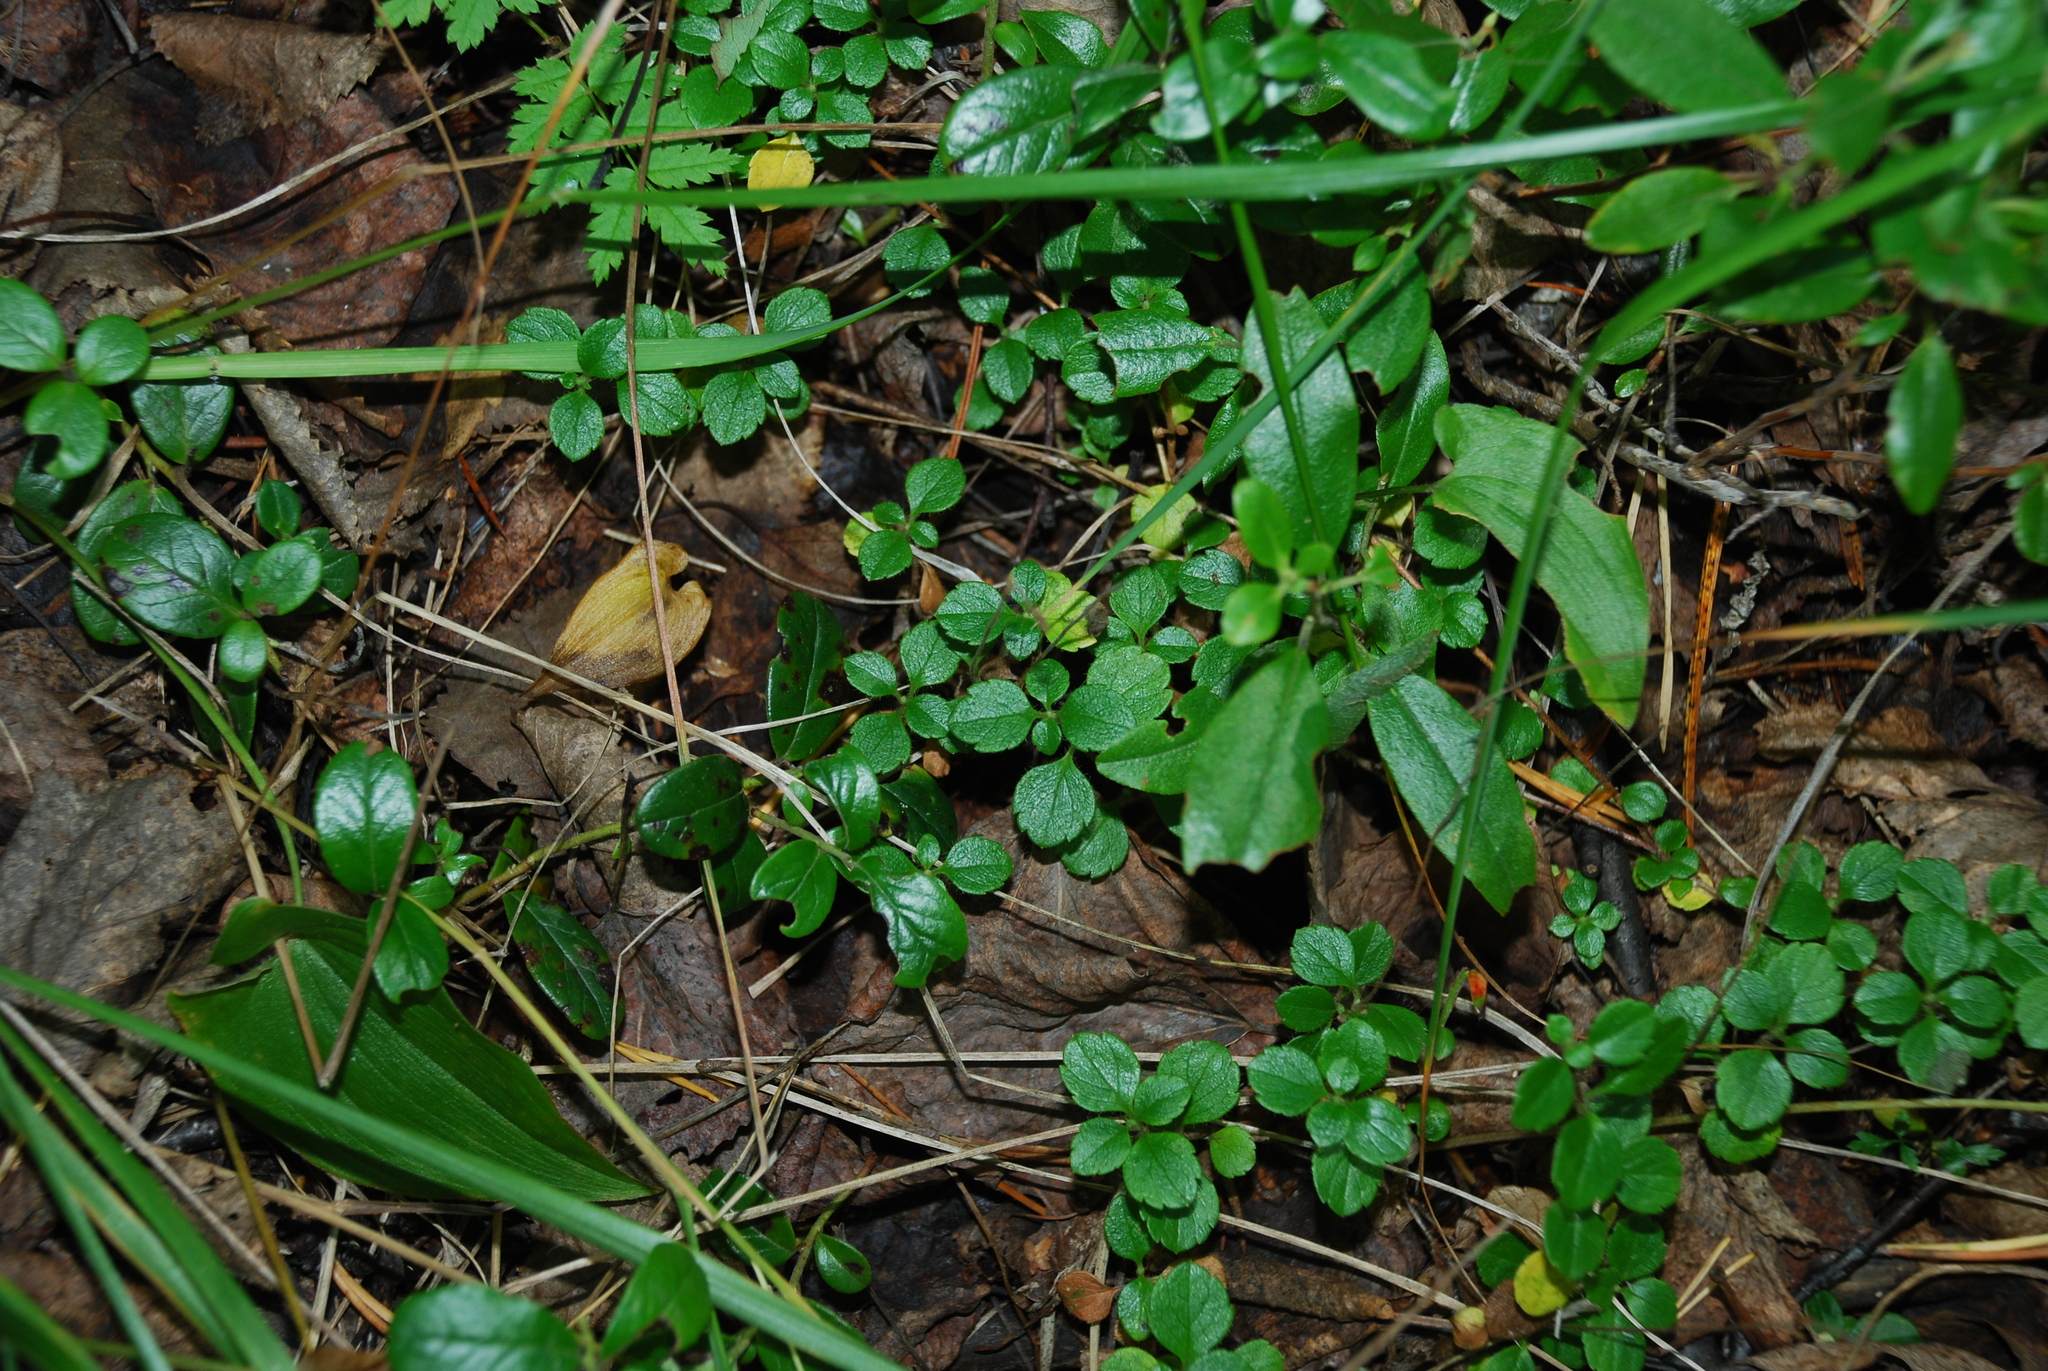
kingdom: Plantae
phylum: Tracheophyta
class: Magnoliopsida
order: Dipsacales
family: Caprifoliaceae
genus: Linnaea
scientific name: Linnaea borealis
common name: Twinflower
